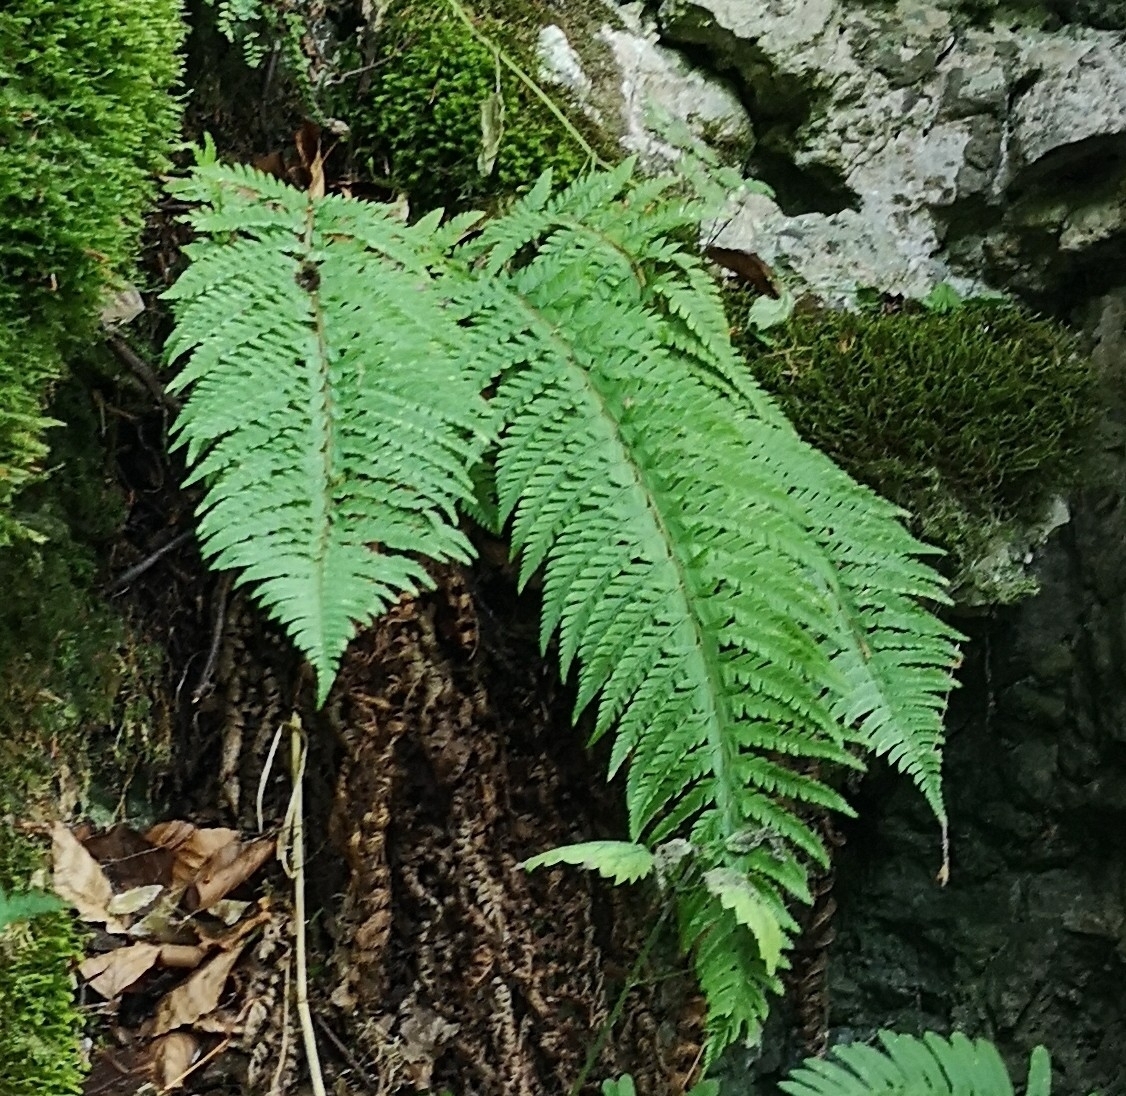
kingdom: Plantae
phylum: Tracheophyta
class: Polypodiopsida
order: Polypodiales
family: Dryopteridaceae
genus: Polystichum
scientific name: Polystichum aculeatum
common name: Hard shield-fern
